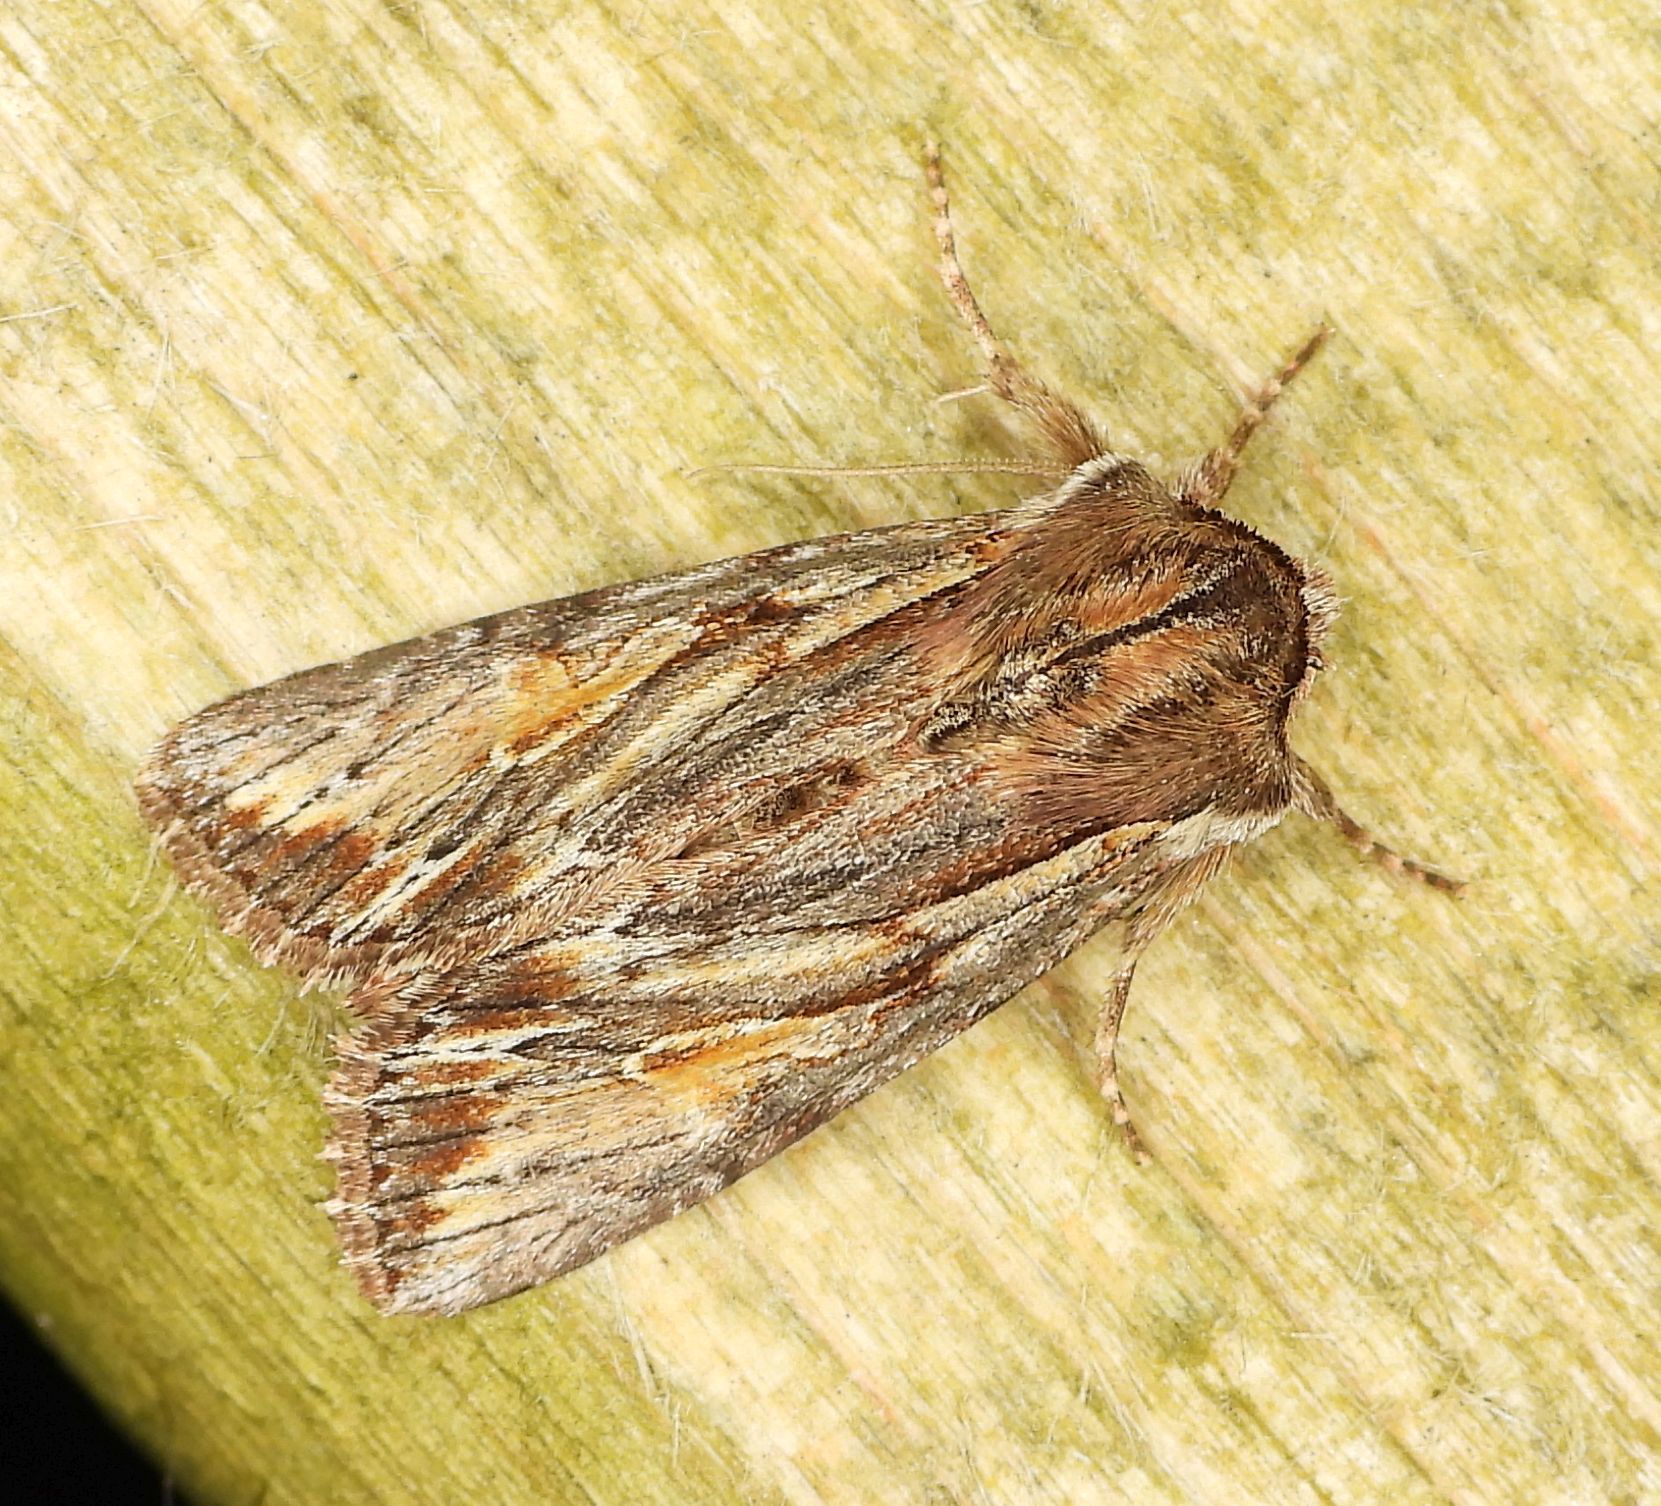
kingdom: Animalia
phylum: Arthropoda
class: Insecta
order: Lepidoptera
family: Noctuidae
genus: Achatia
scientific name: Achatia evicta
